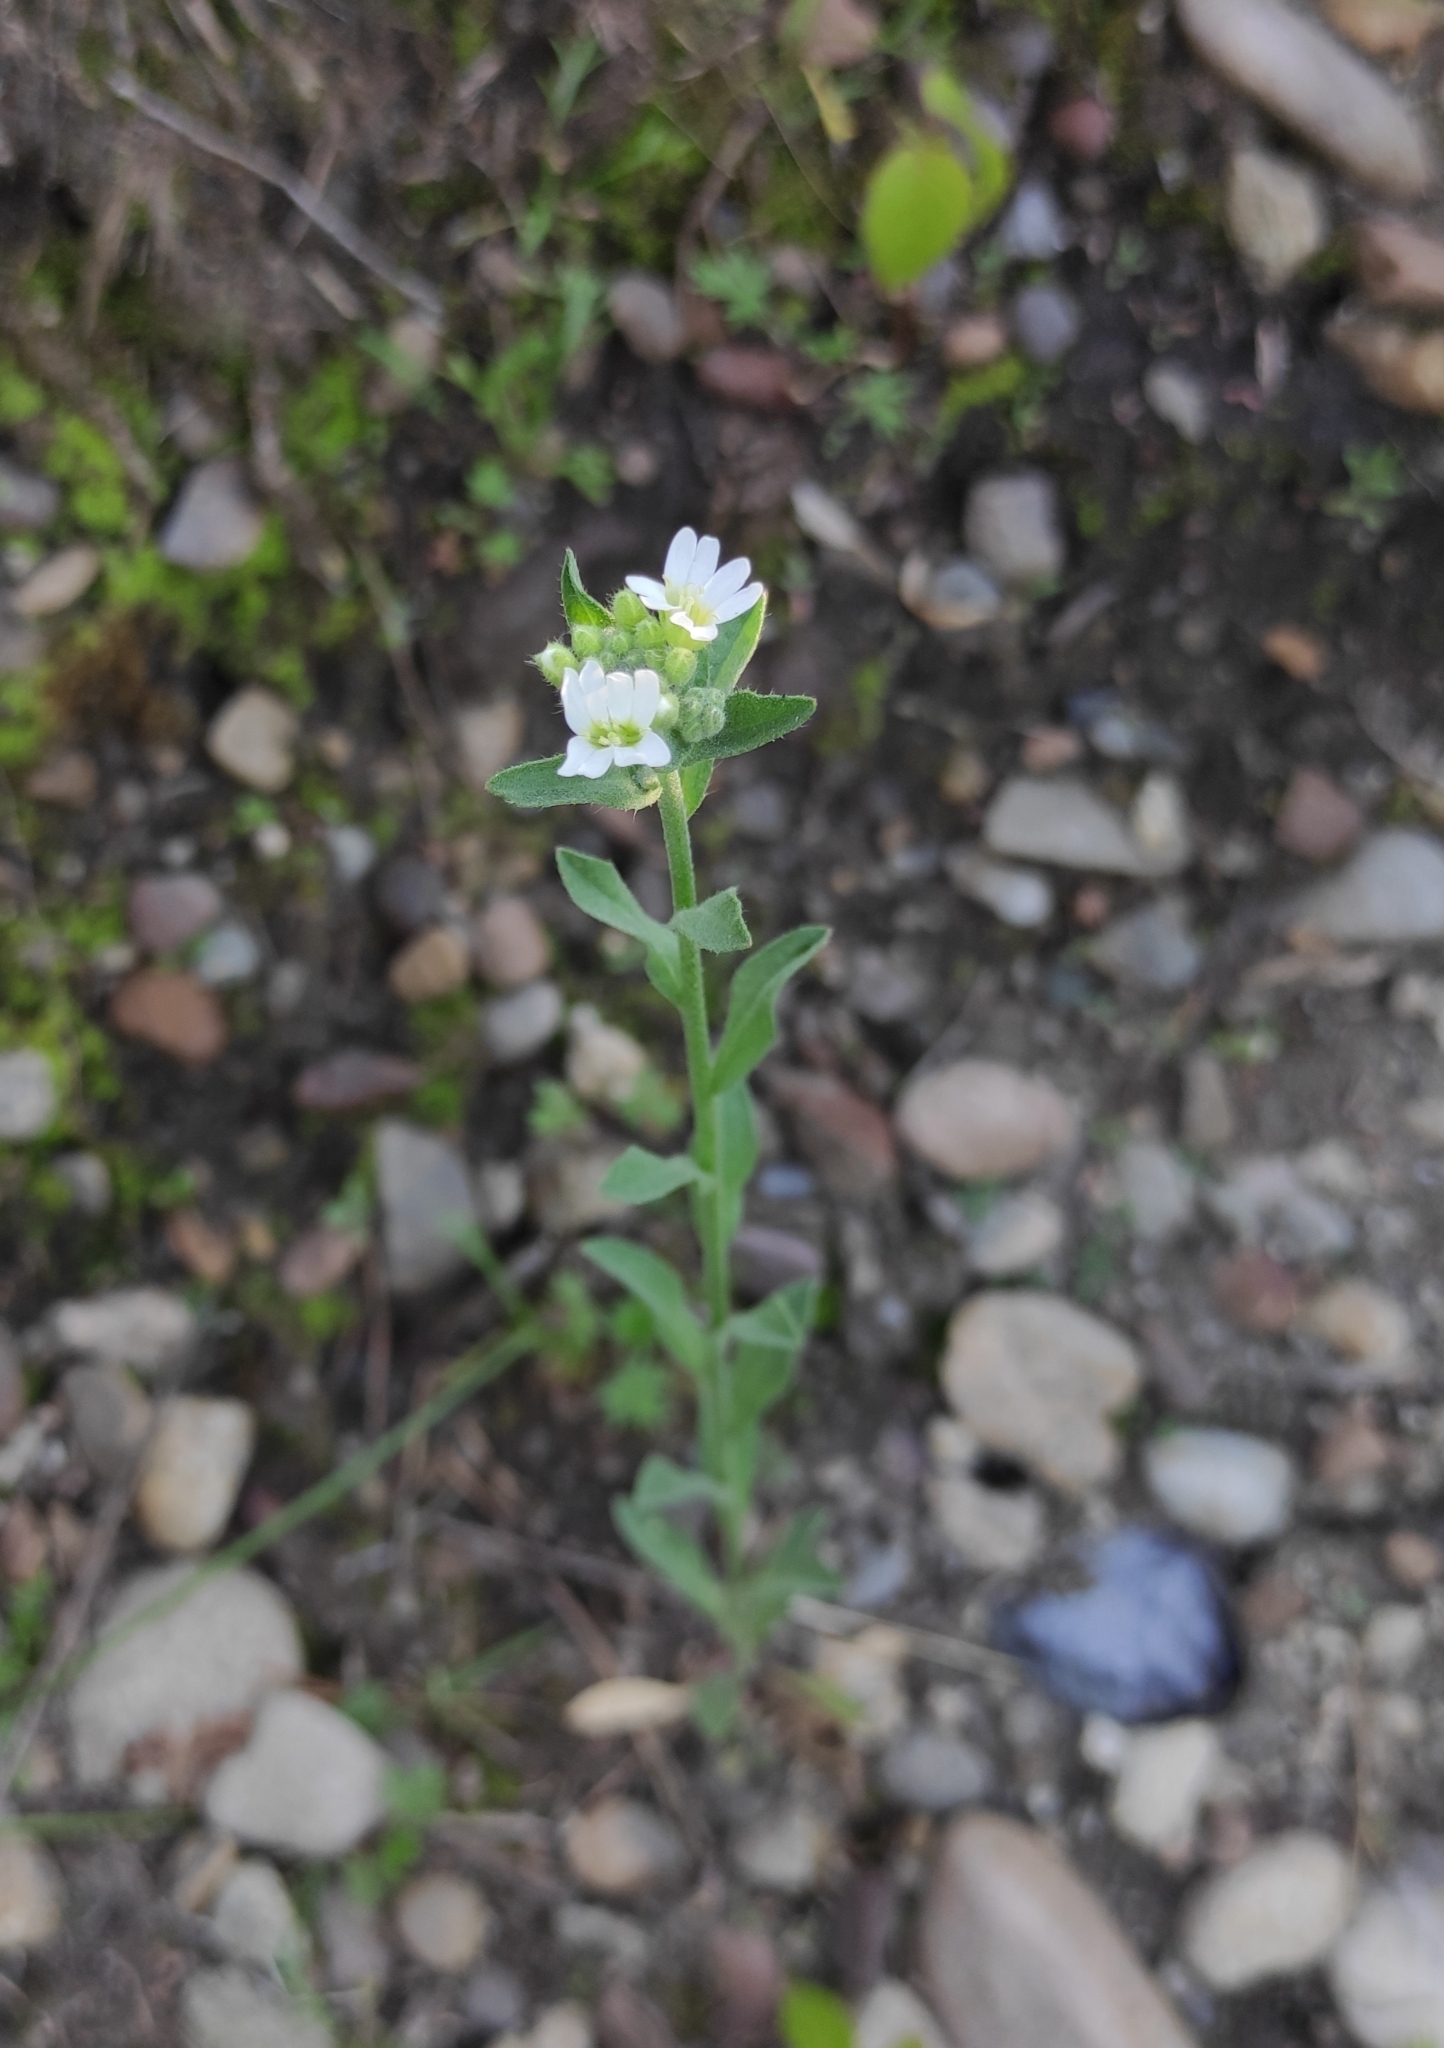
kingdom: Plantae
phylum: Tracheophyta
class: Magnoliopsida
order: Brassicales
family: Brassicaceae
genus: Berteroa
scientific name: Berteroa incana
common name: Hoary alison
